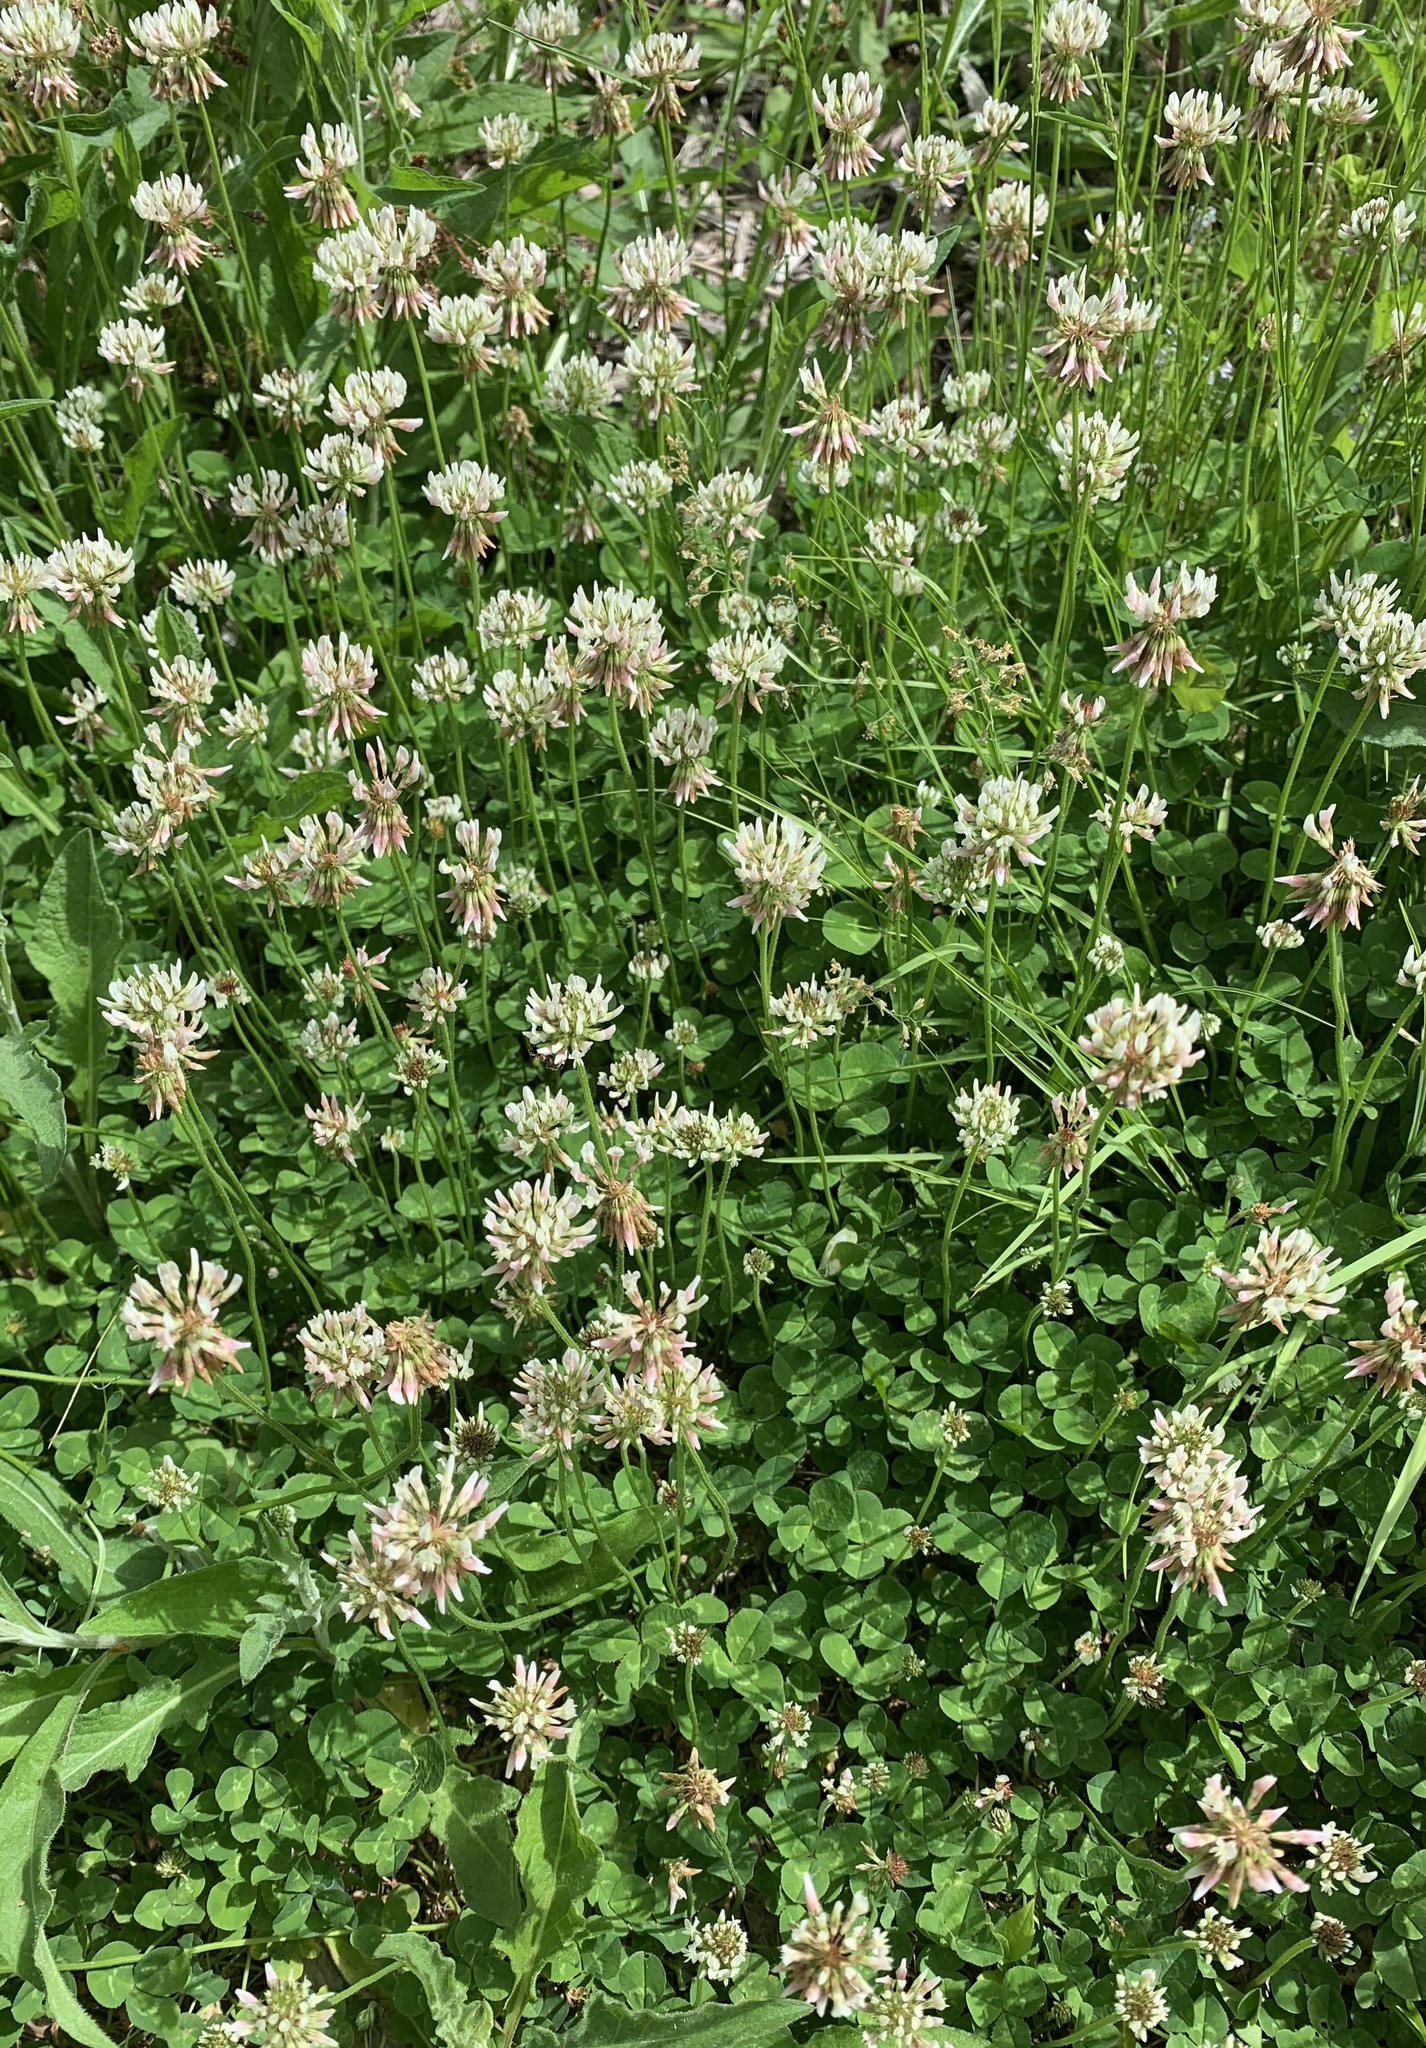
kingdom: Plantae
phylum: Tracheophyta
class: Magnoliopsida
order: Fabales
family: Fabaceae
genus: Trifolium
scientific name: Trifolium repens
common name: White clover
